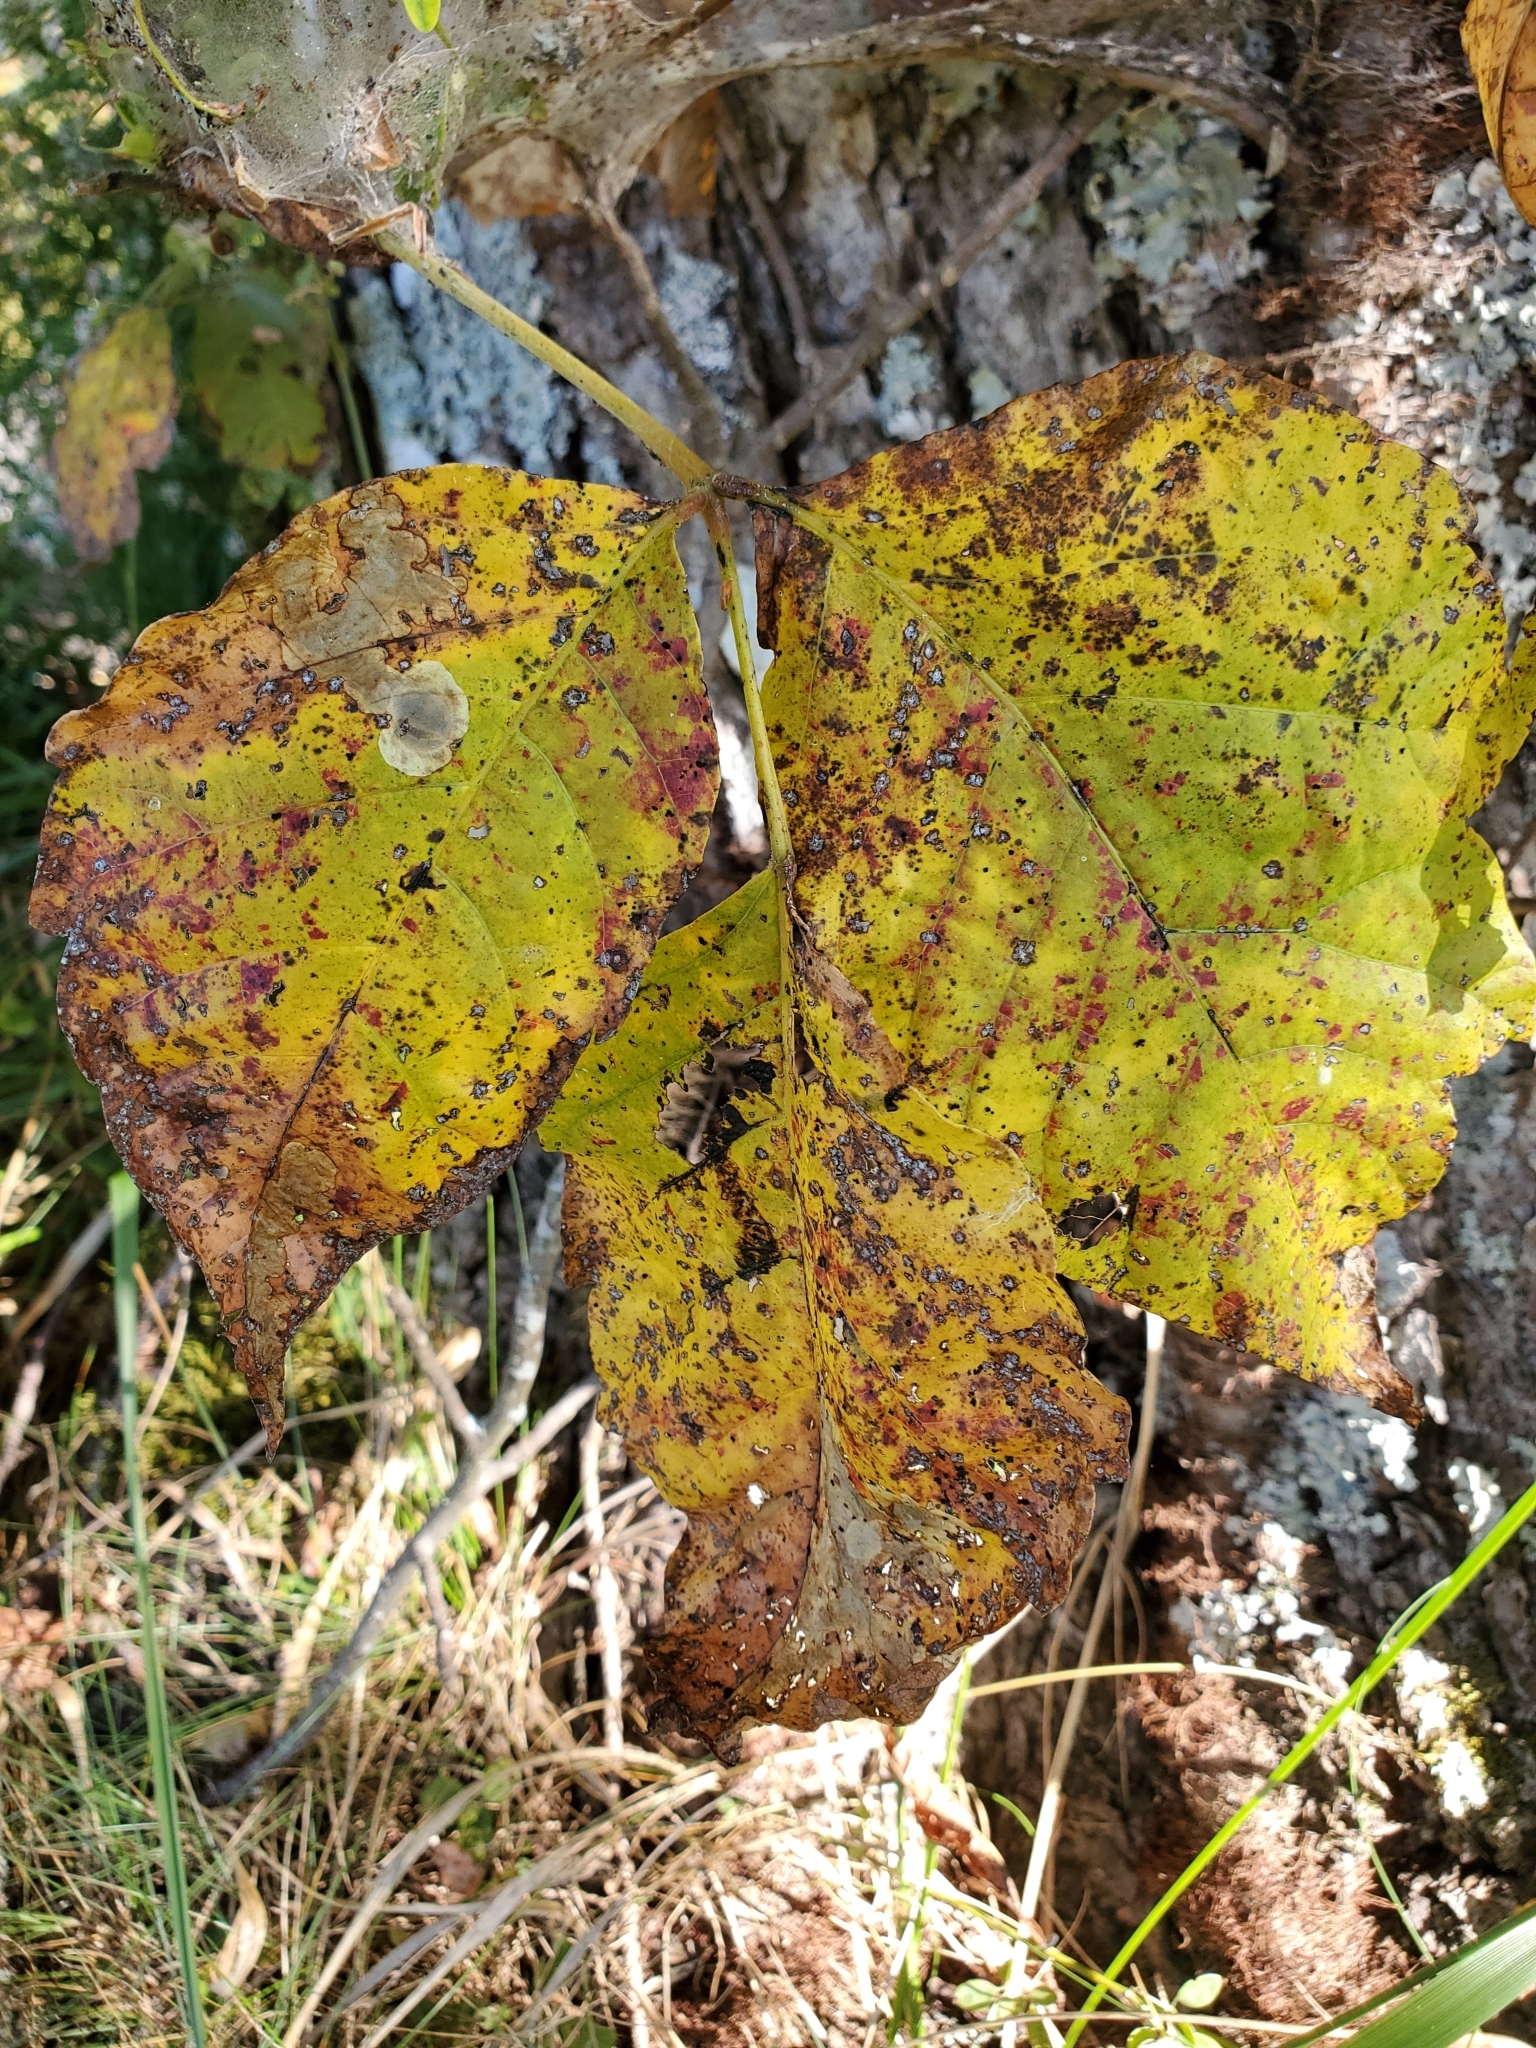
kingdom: Animalia
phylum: Arthropoda
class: Insecta
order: Lepidoptera
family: Gracillariidae
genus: Cameraria
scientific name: Cameraria guttifinitella
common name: Poison ivy leaf-miner moth
